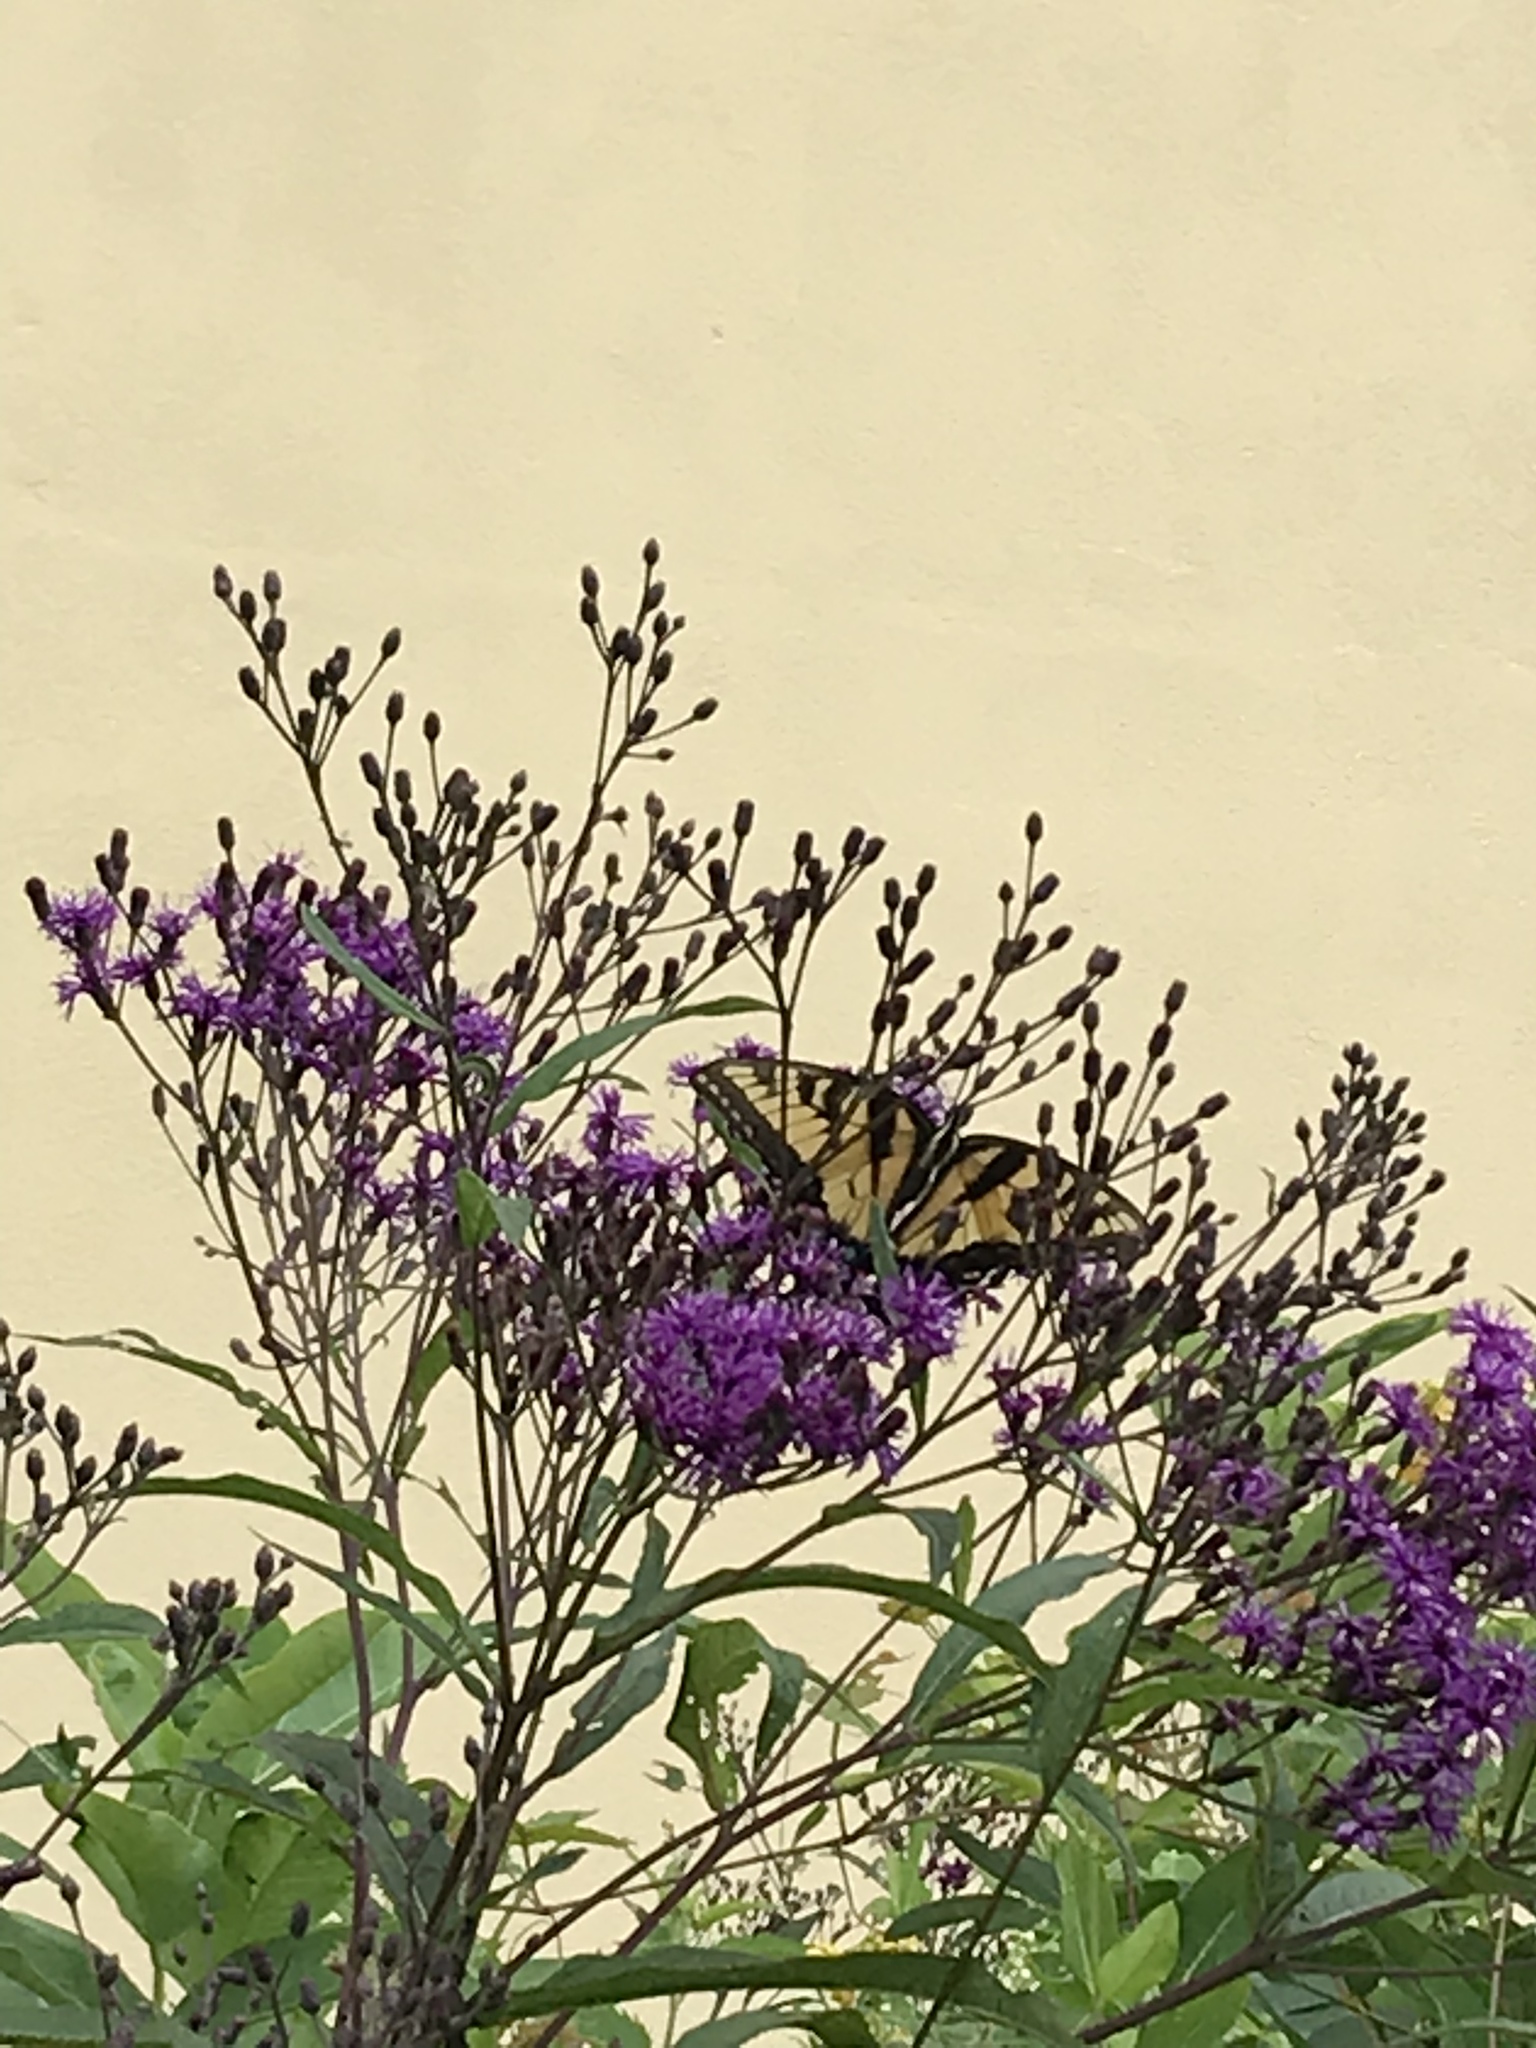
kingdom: Animalia
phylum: Arthropoda
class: Insecta
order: Lepidoptera
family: Papilionidae
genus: Papilio
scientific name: Papilio glaucus
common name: Tiger swallowtail
